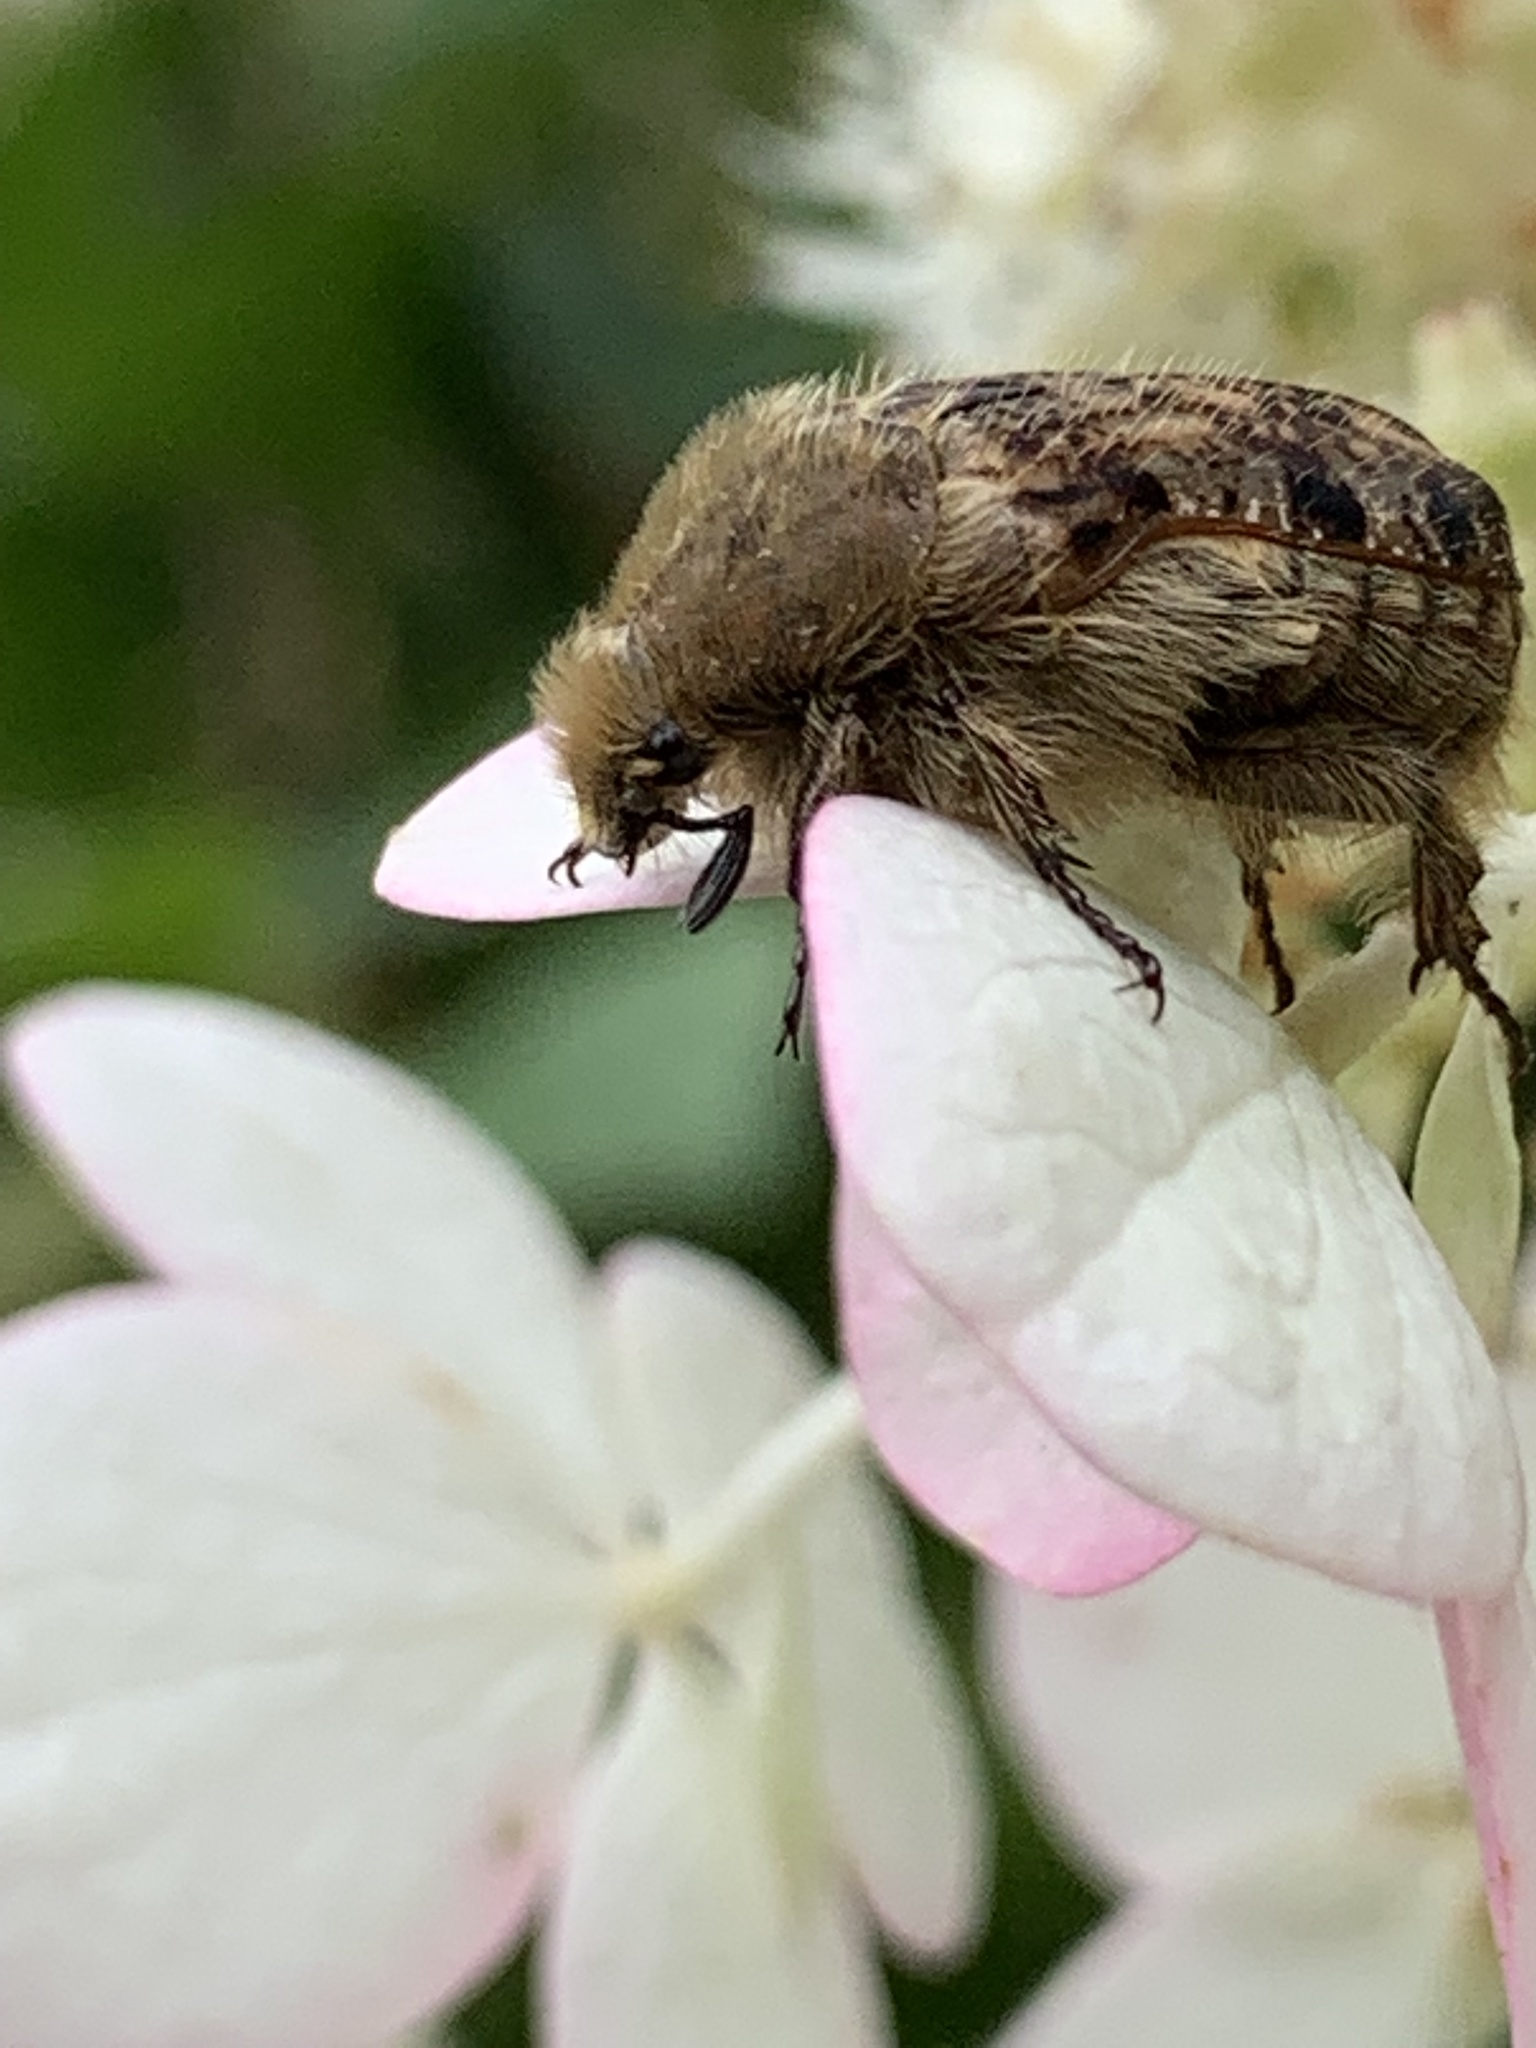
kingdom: Animalia
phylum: Arthropoda
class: Insecta
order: Coleoptera
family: Scarabaeidae
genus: Euphoria
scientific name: Euphoria inda
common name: Bumble flower beetle
